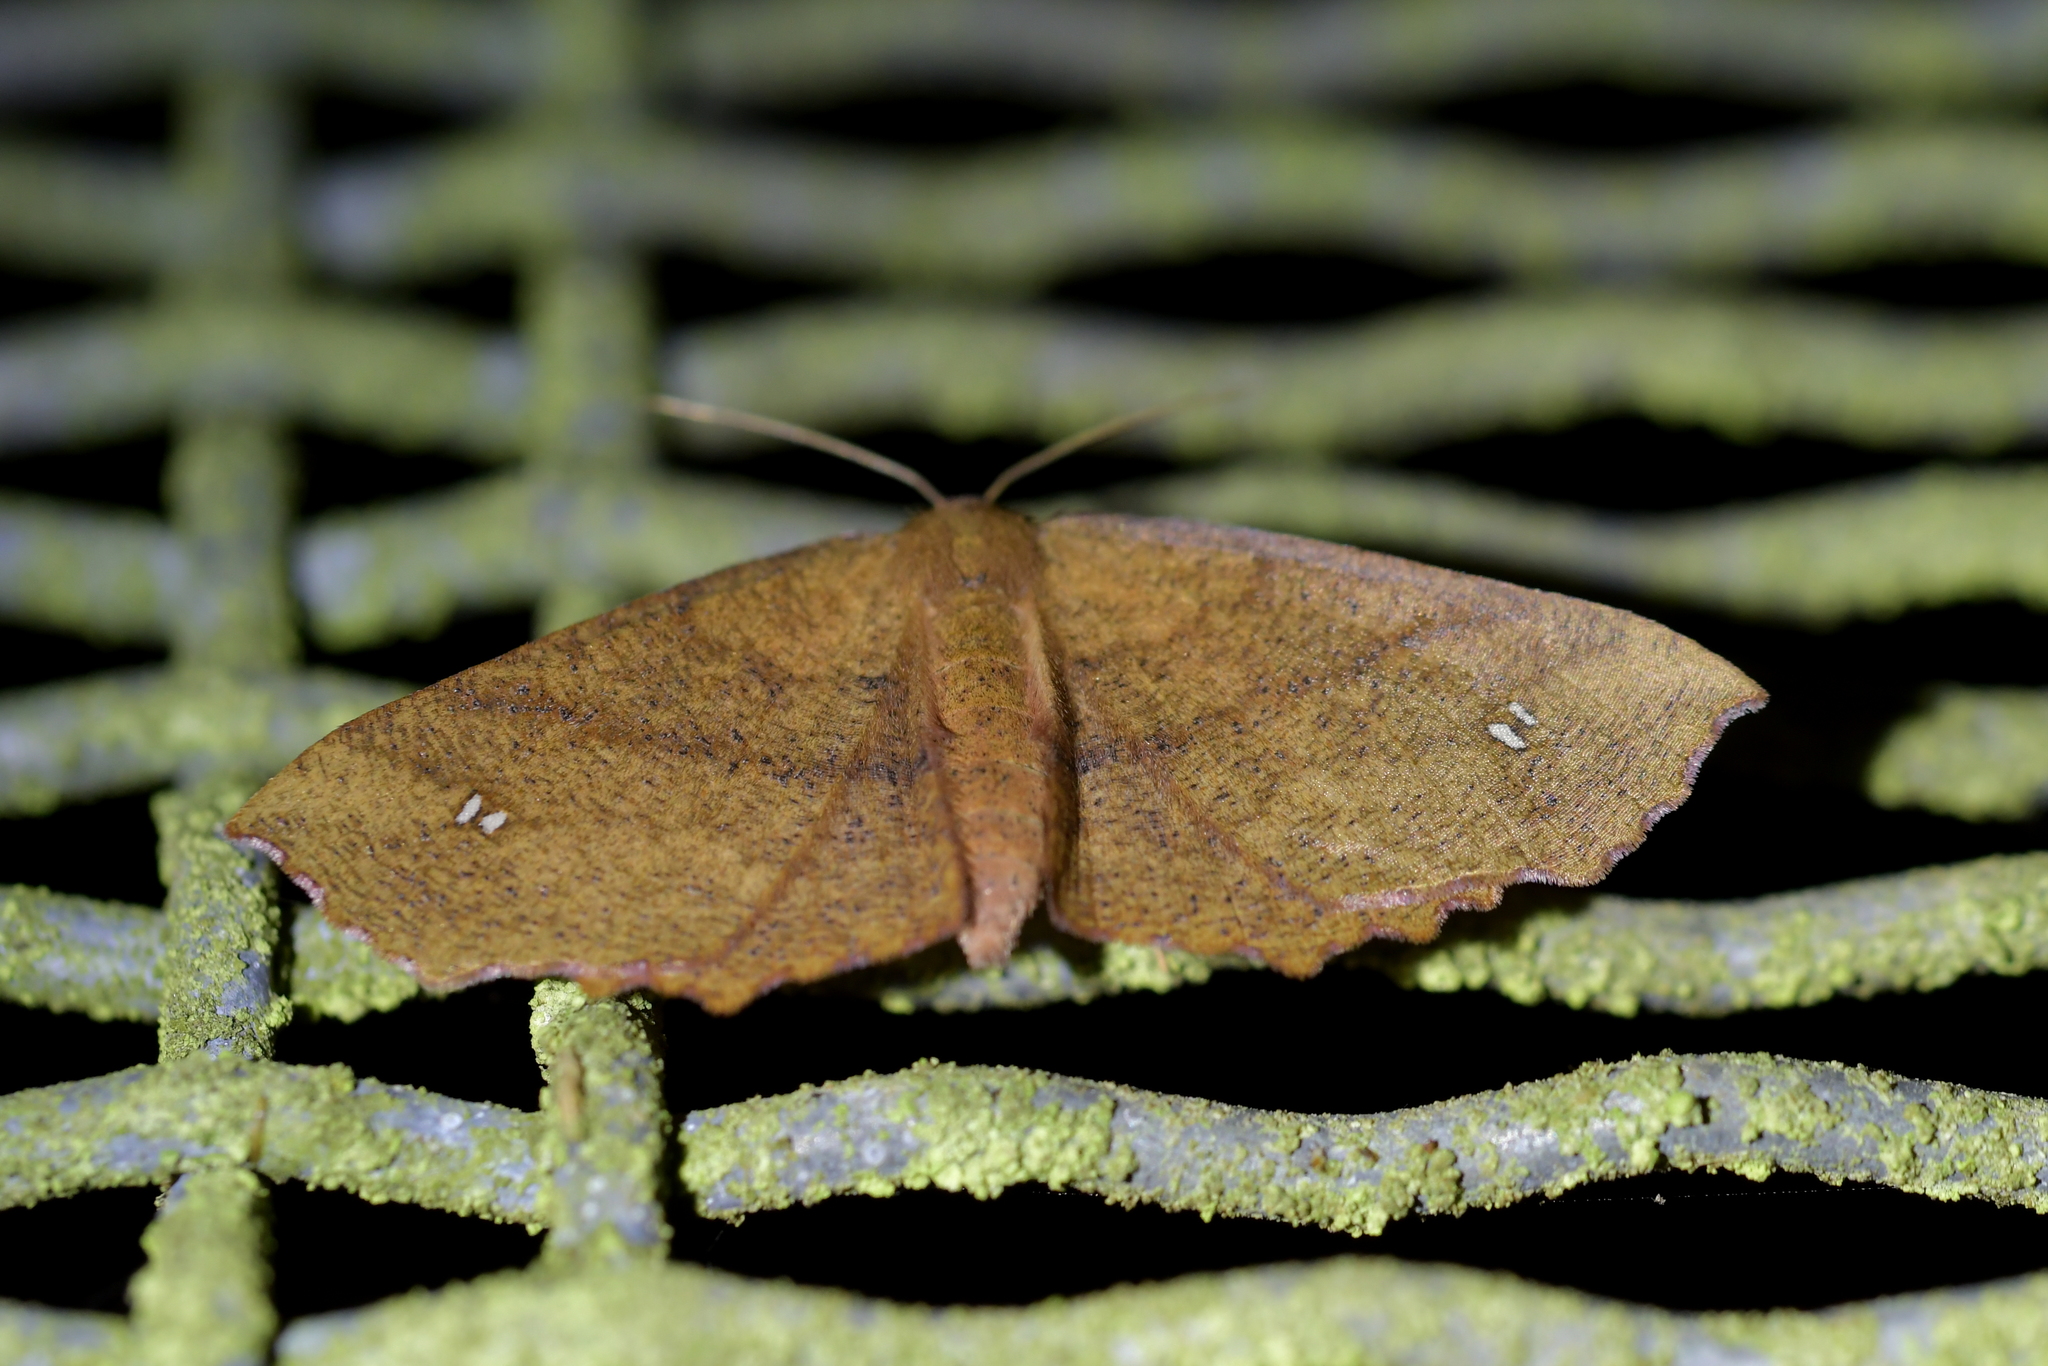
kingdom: Animalia
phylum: Arthropoda
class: Insecta
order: Lepidoptera
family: Geometridae
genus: Xyridacma
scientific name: Xyridacma ustaria
